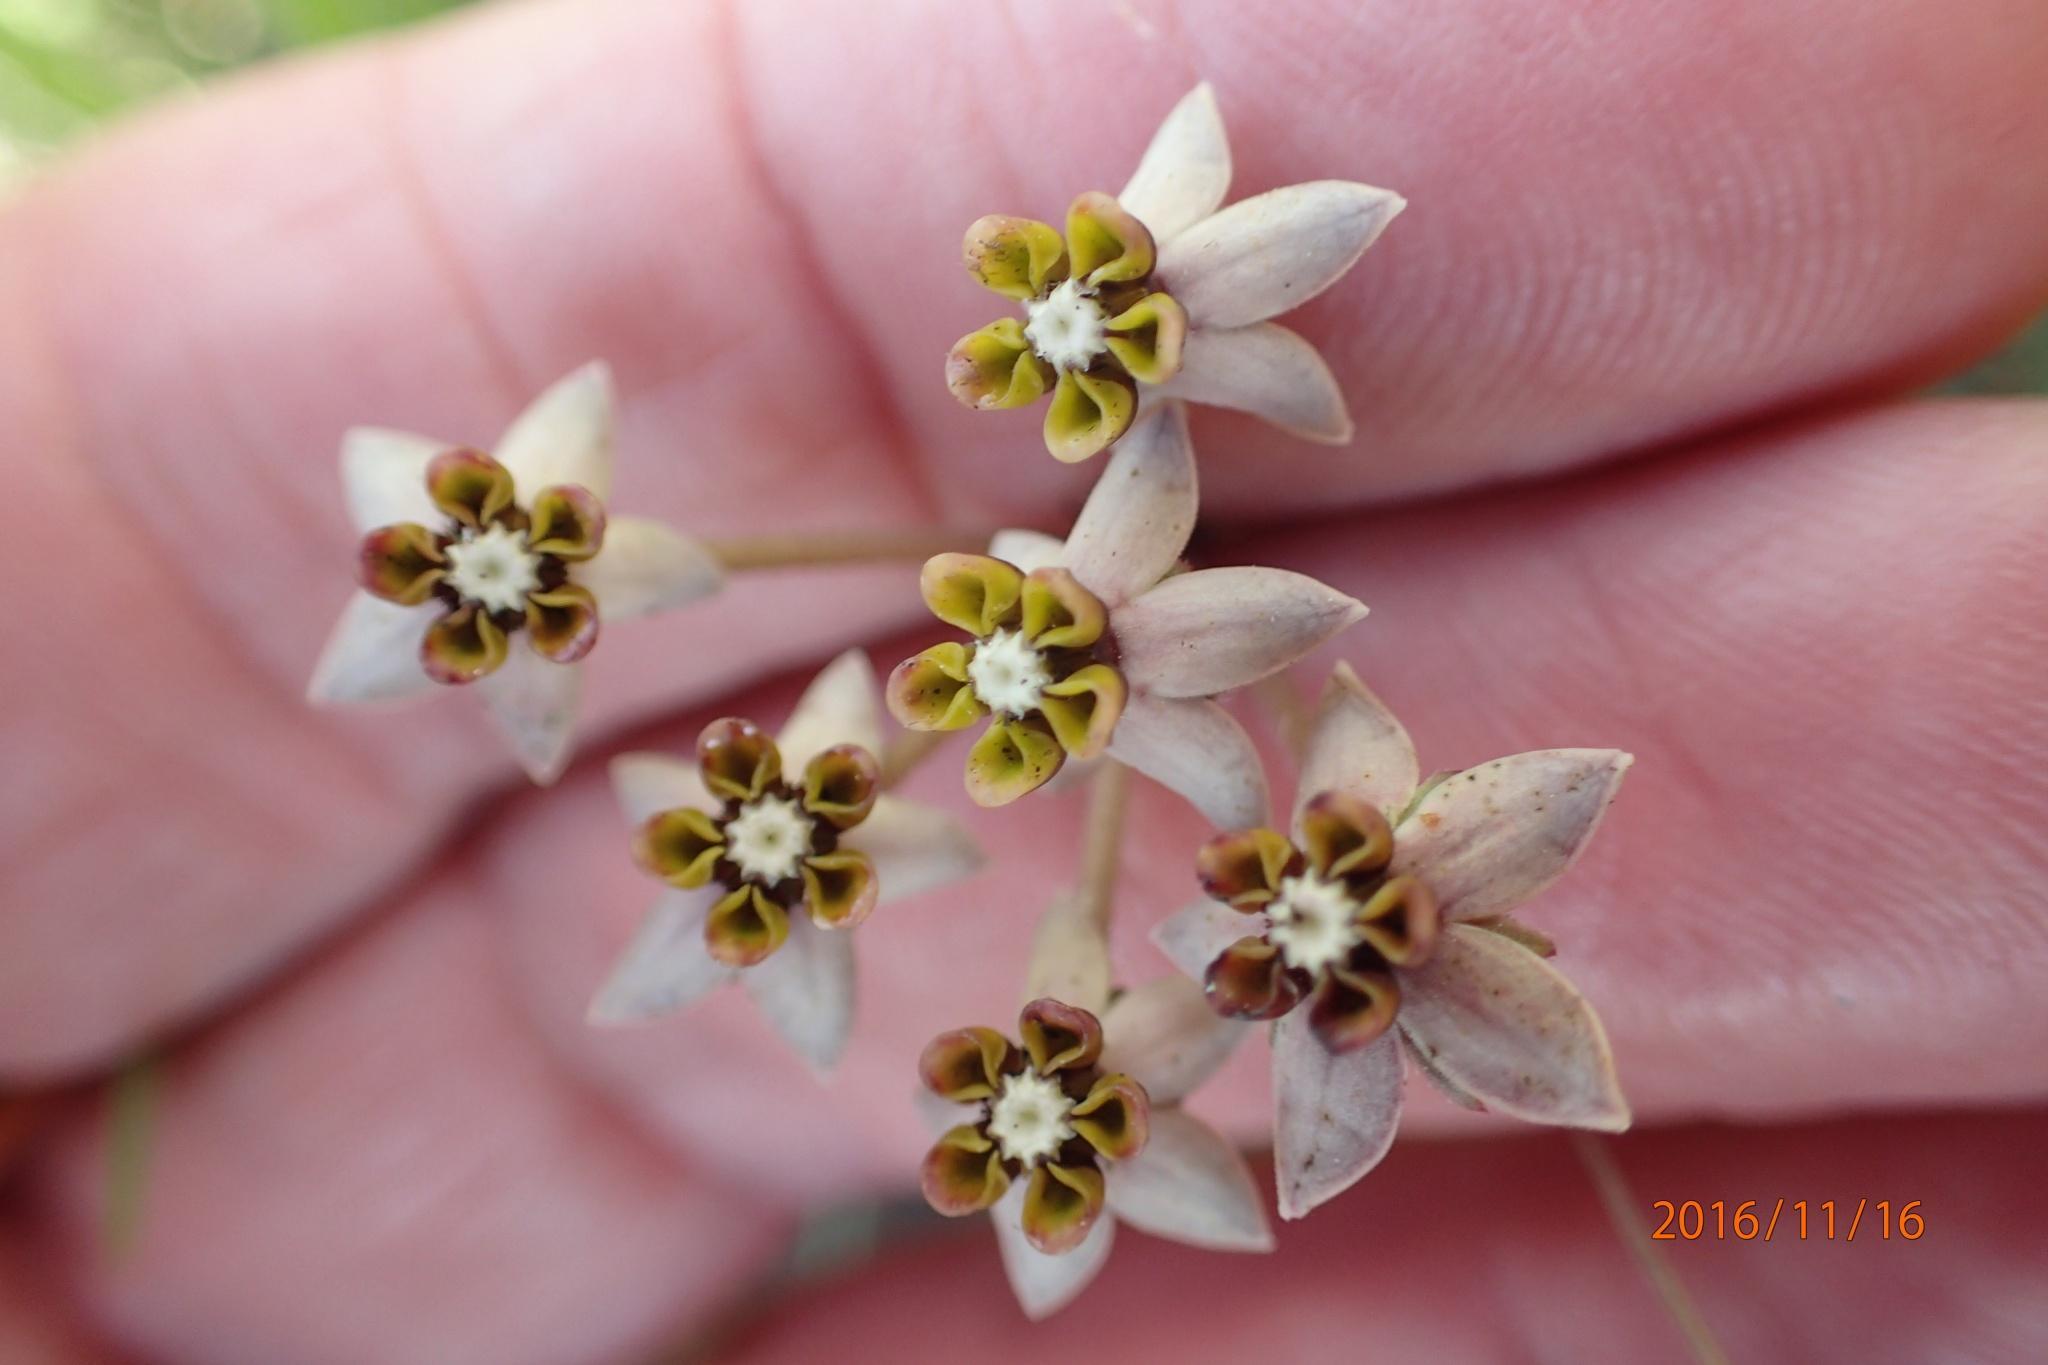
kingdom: Plantae
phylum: Tracheophyta
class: Magnoliopsida
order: Gentianales
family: Apocynaceae
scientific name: Apocynaceae
